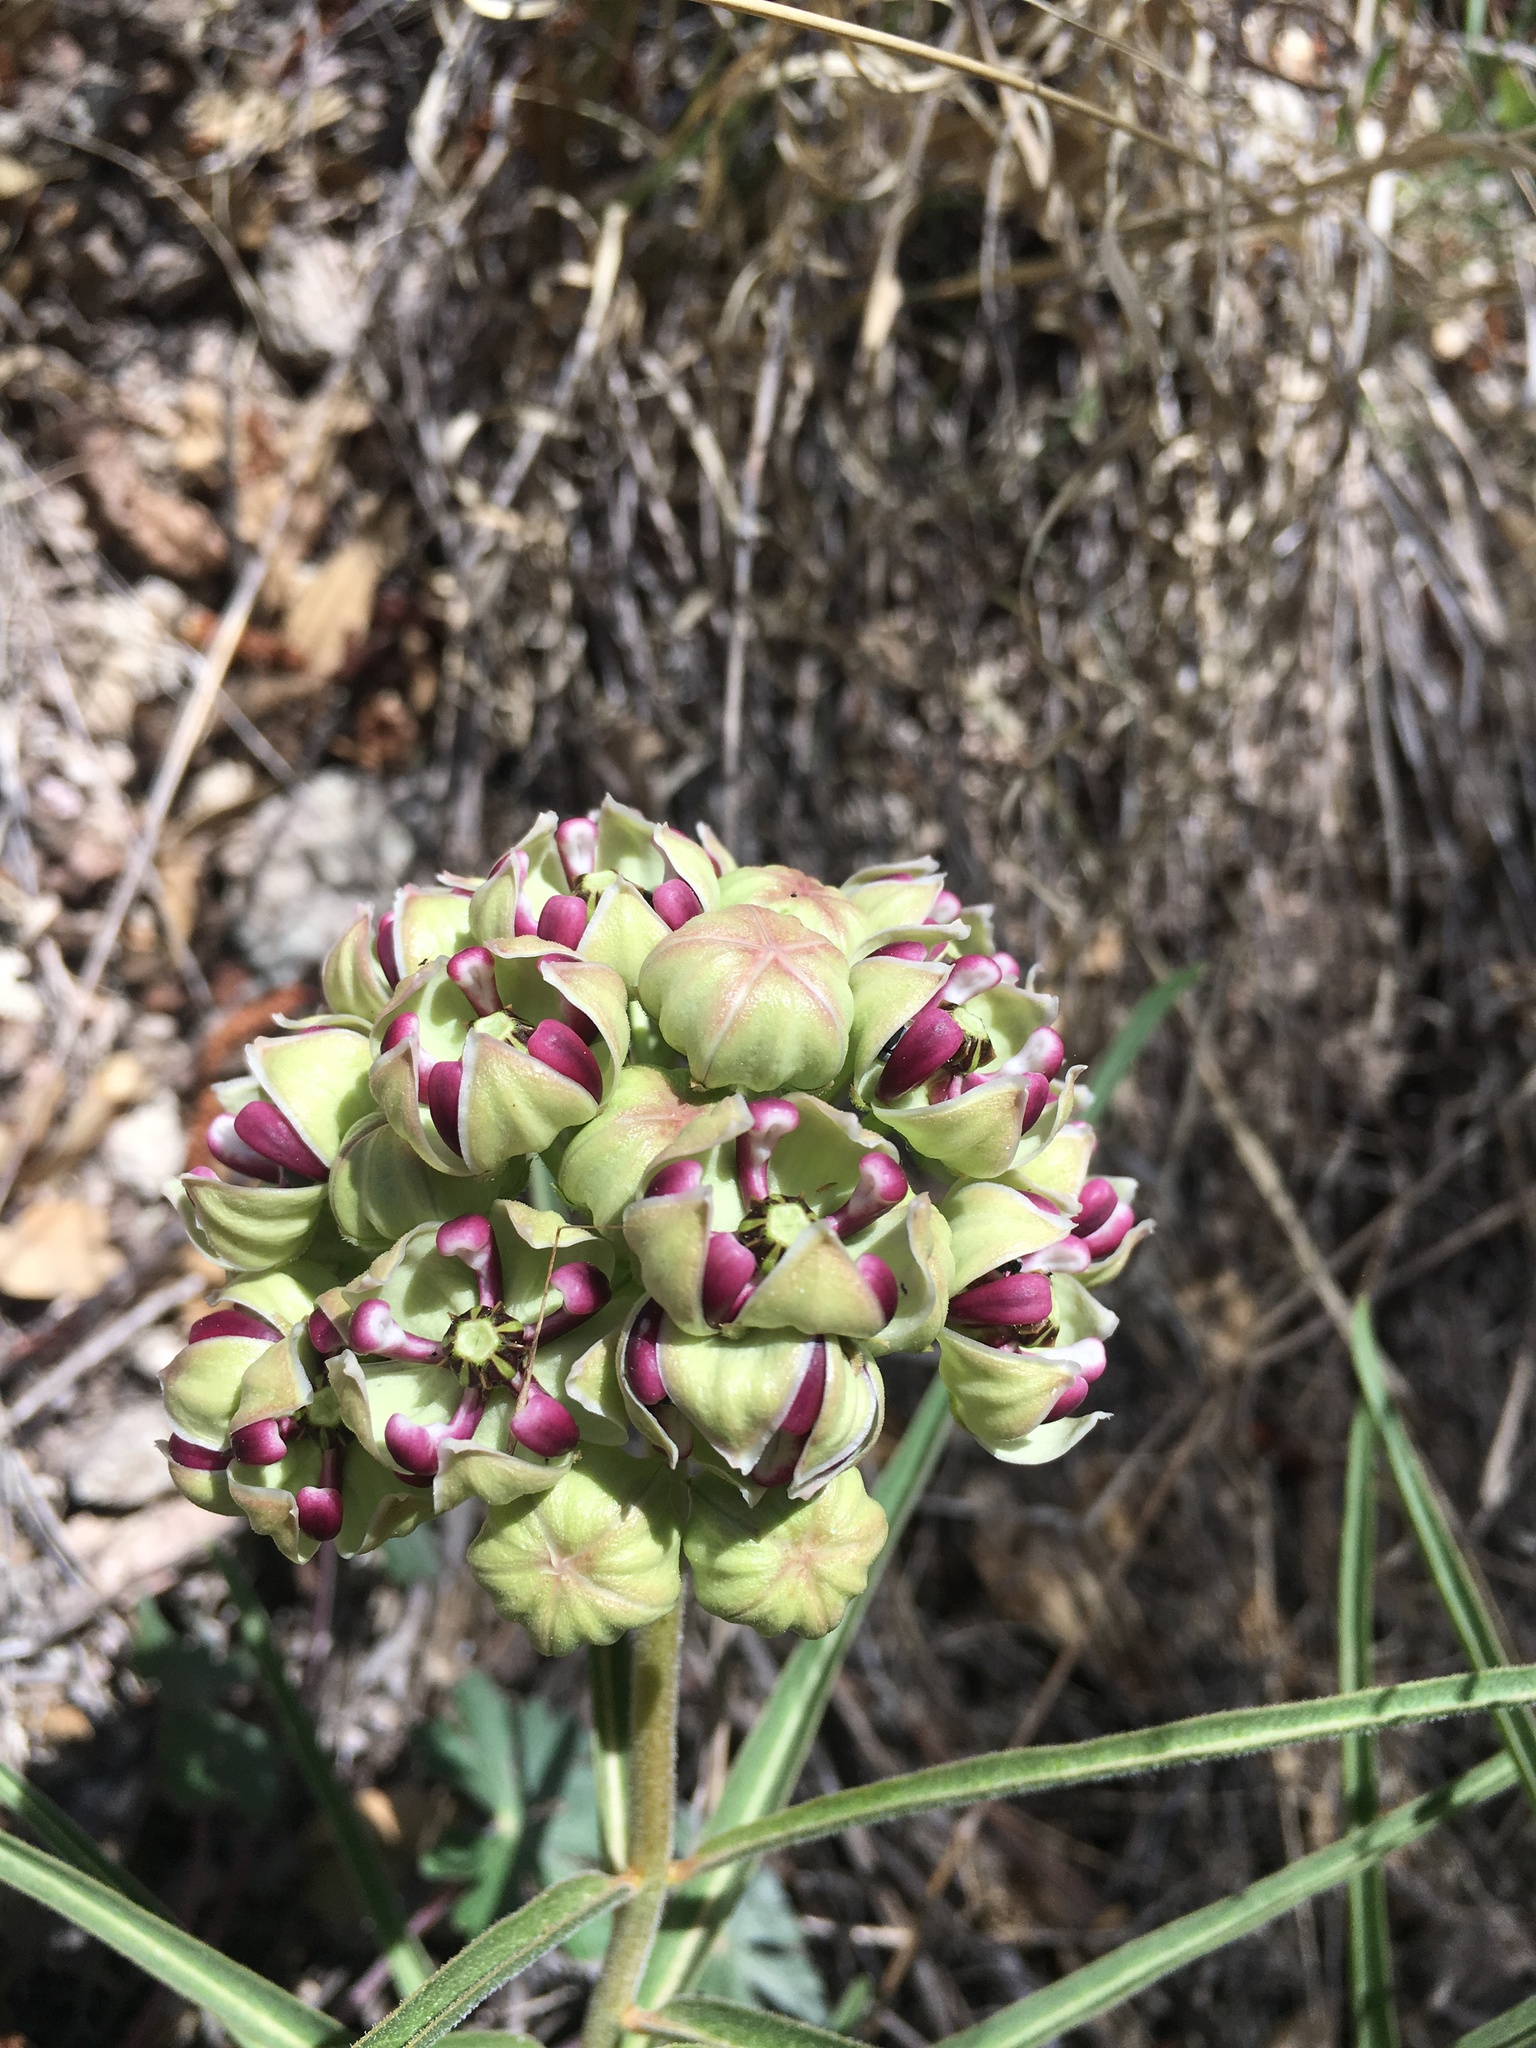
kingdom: Plantae
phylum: Tracheophyta
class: Magnoliopsida
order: Gentianales
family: Apocynaceae
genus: Asclepias
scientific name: Asclepias asperula
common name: Antelope horns
